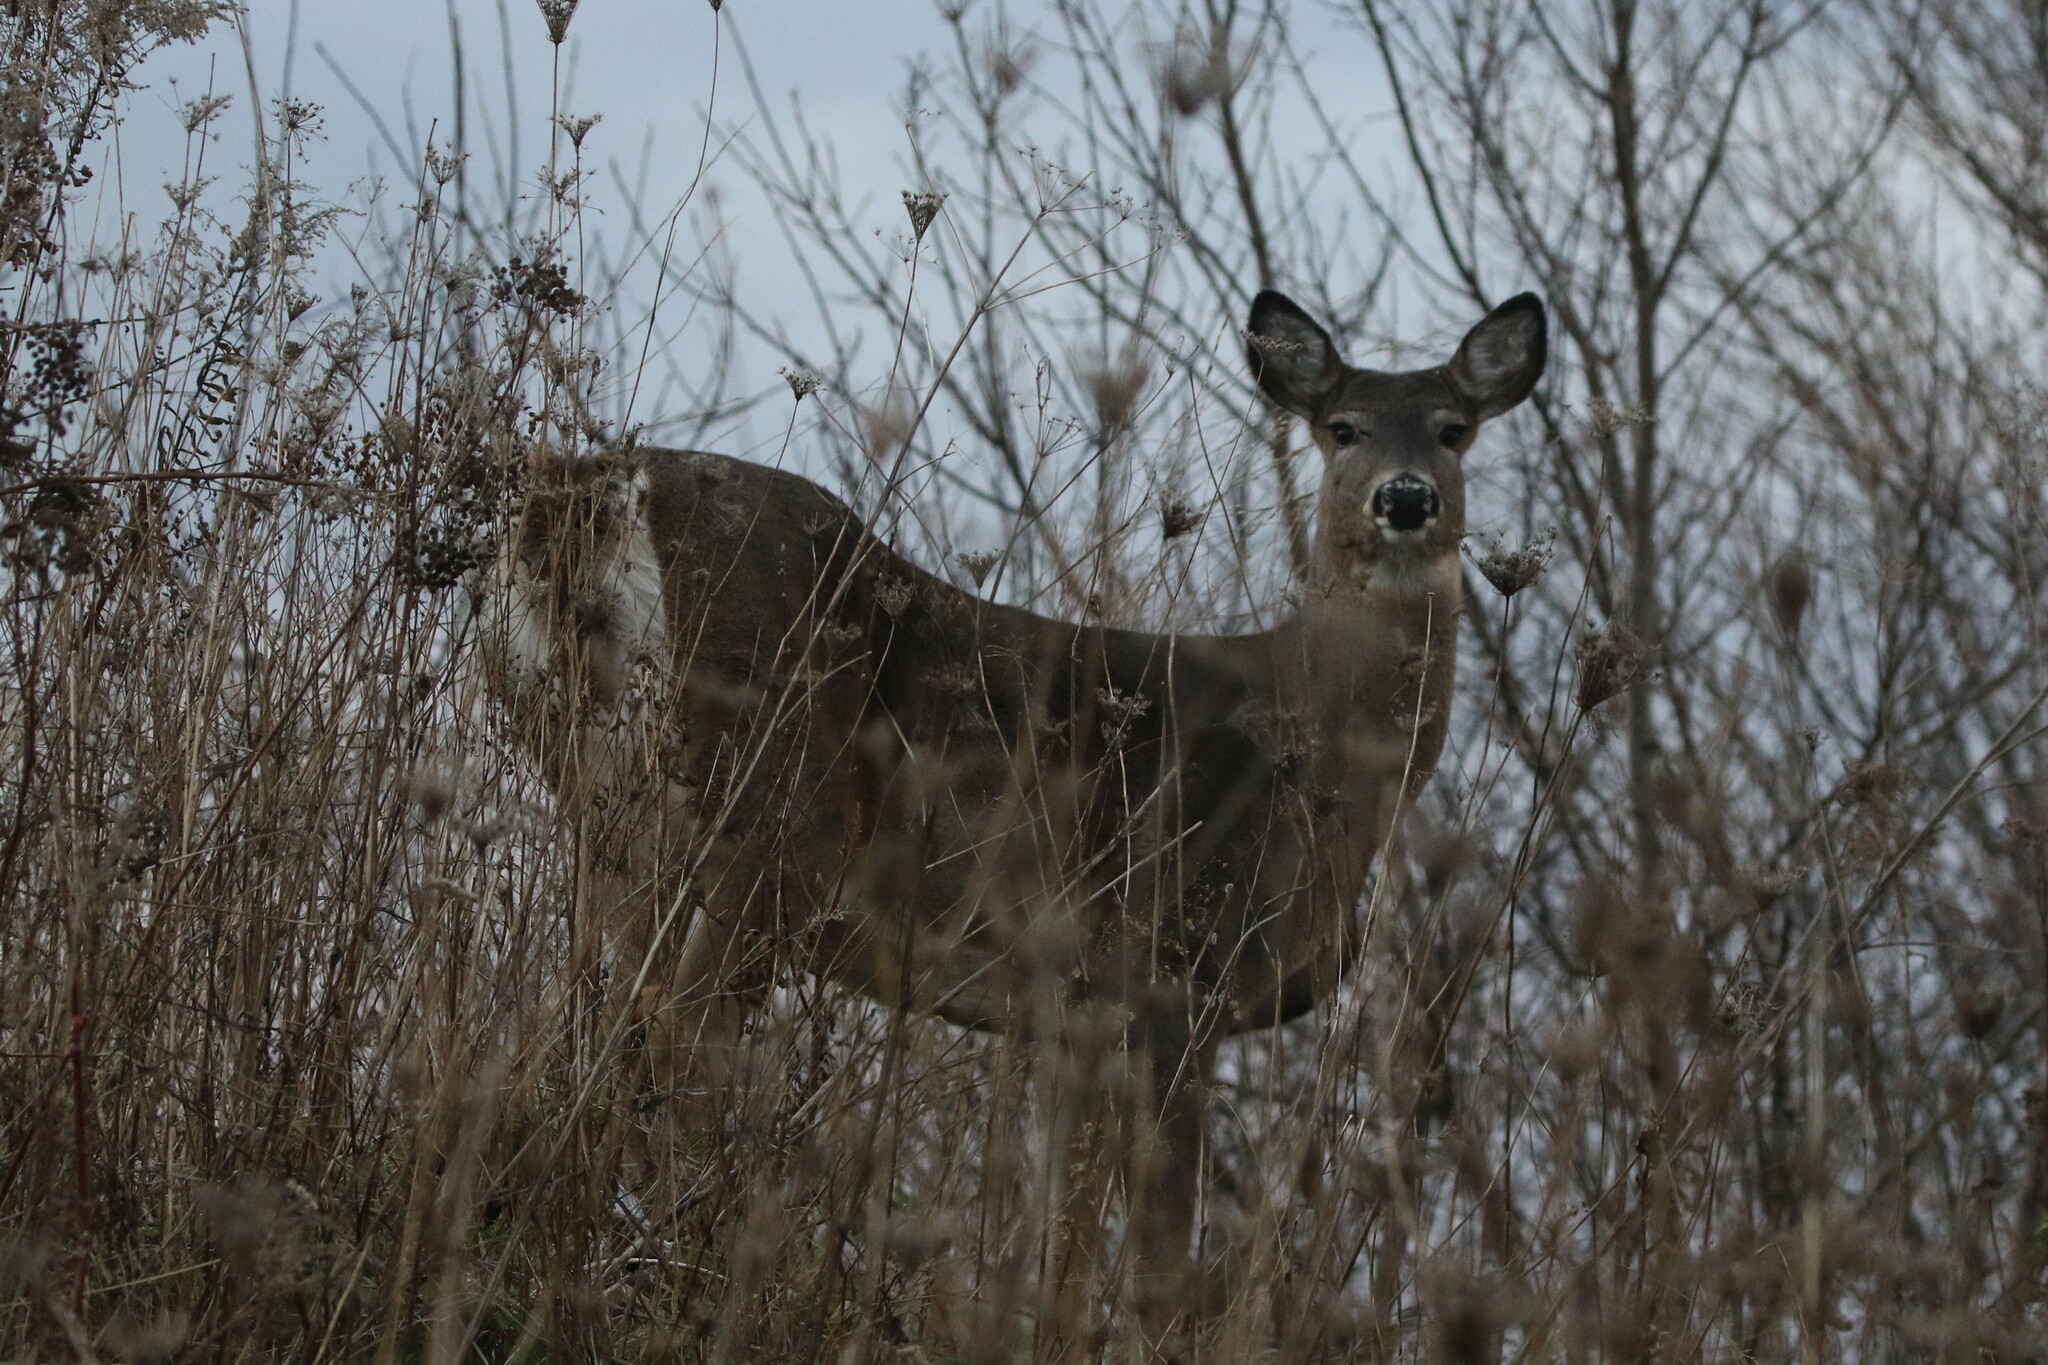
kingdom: Animalia
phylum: Chordata
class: Mammalia
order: Artiodactyla
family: Cervidae
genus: Odocoileus
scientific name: Odocoileus virginianus
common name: White-tailed deer
